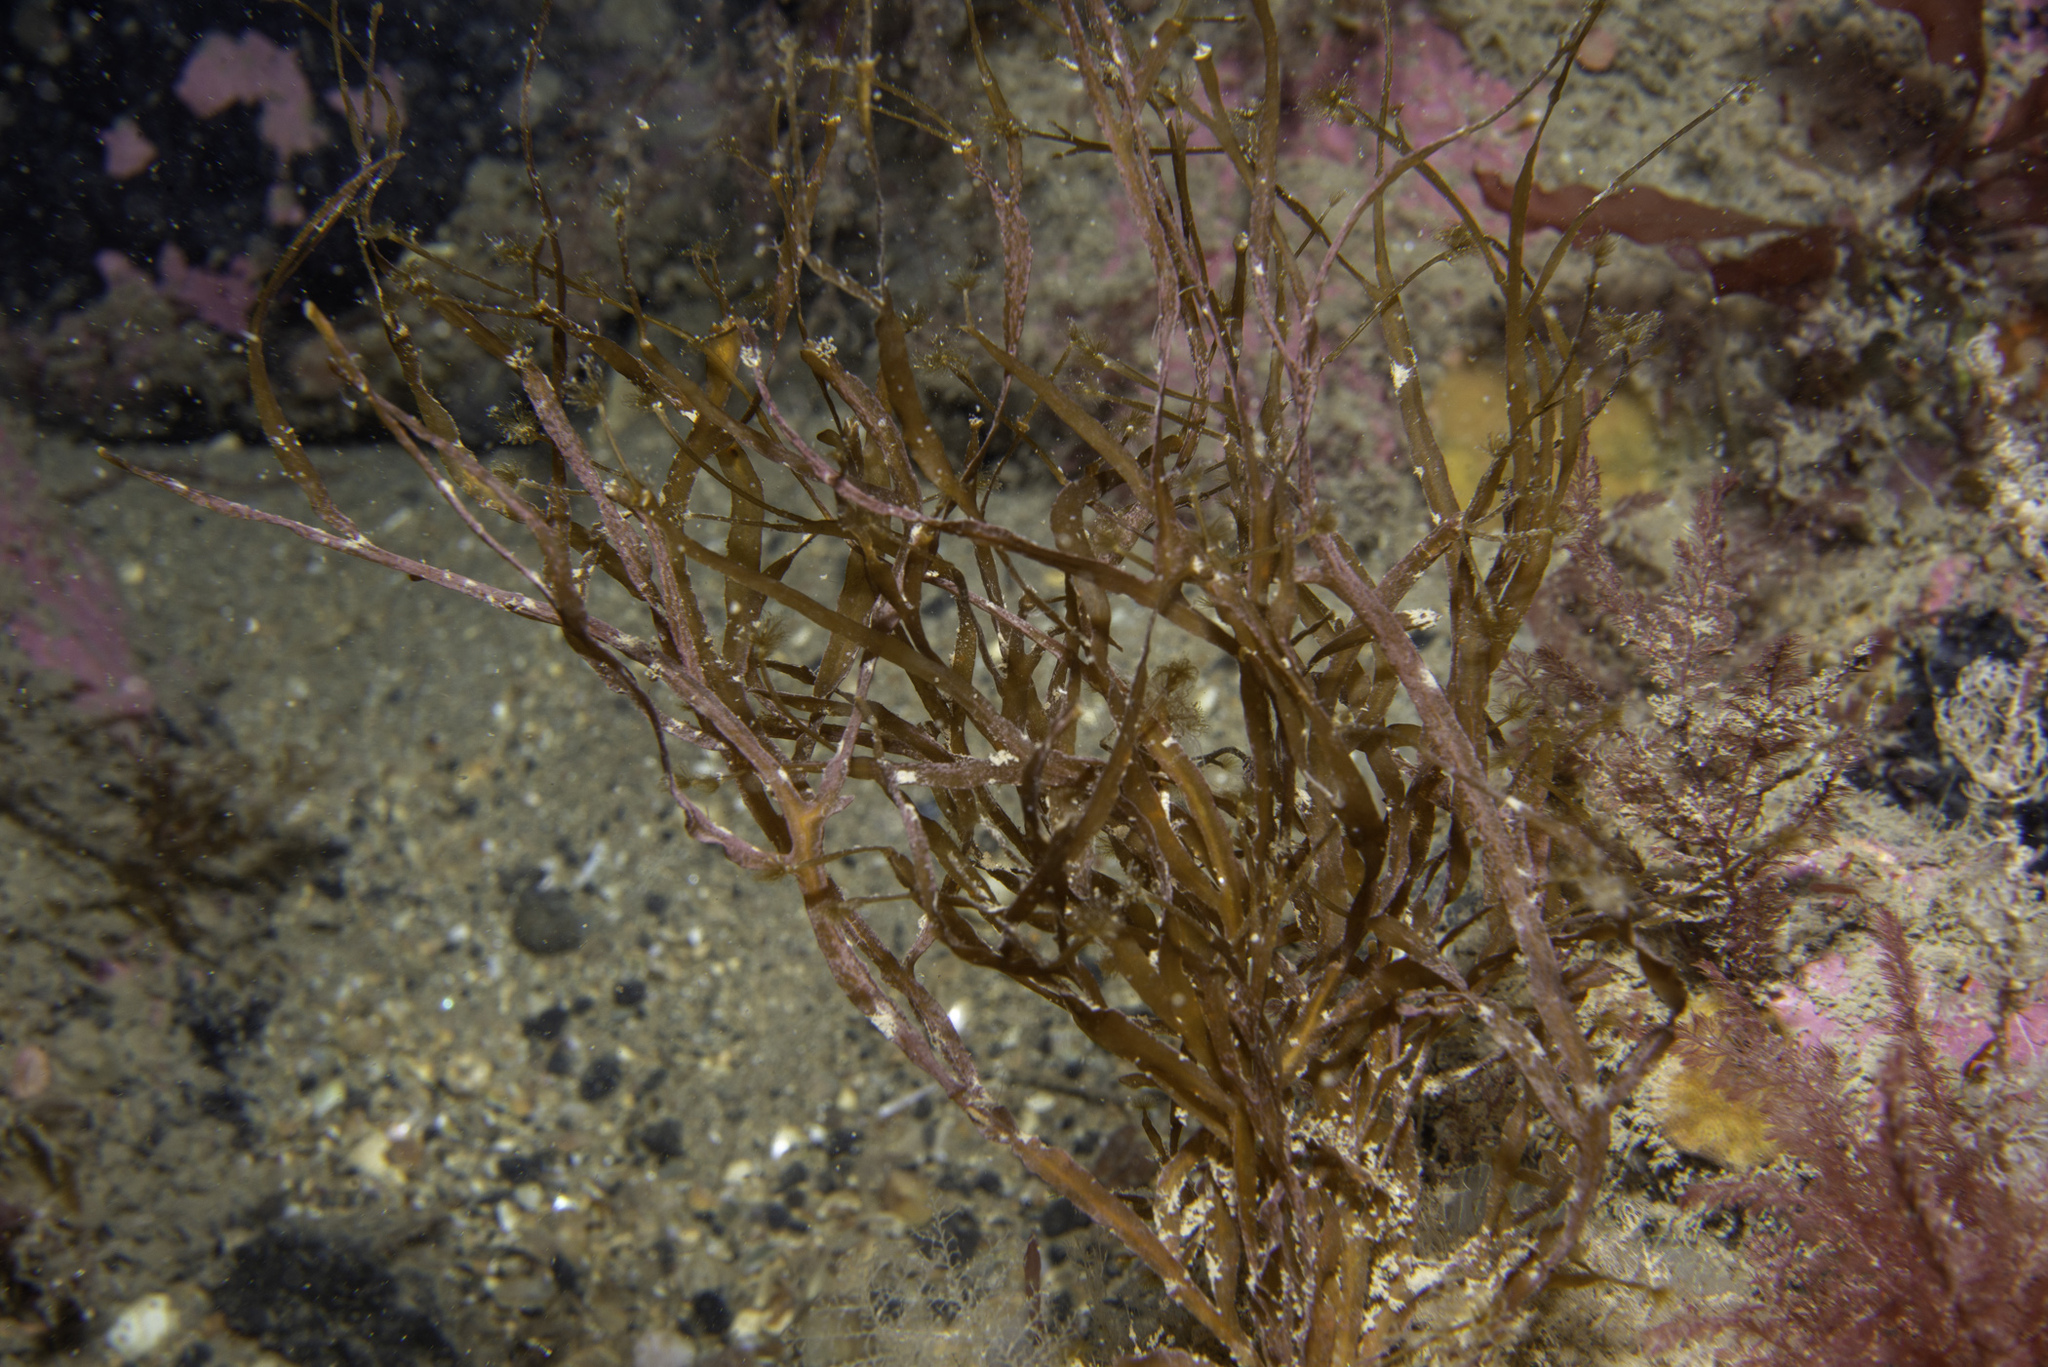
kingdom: Chromista
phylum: Ochrophyta
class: Phaeophyceae
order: Sporochnales
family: Sporochnaceae
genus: Carpomitra
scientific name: Carpomitra costata
